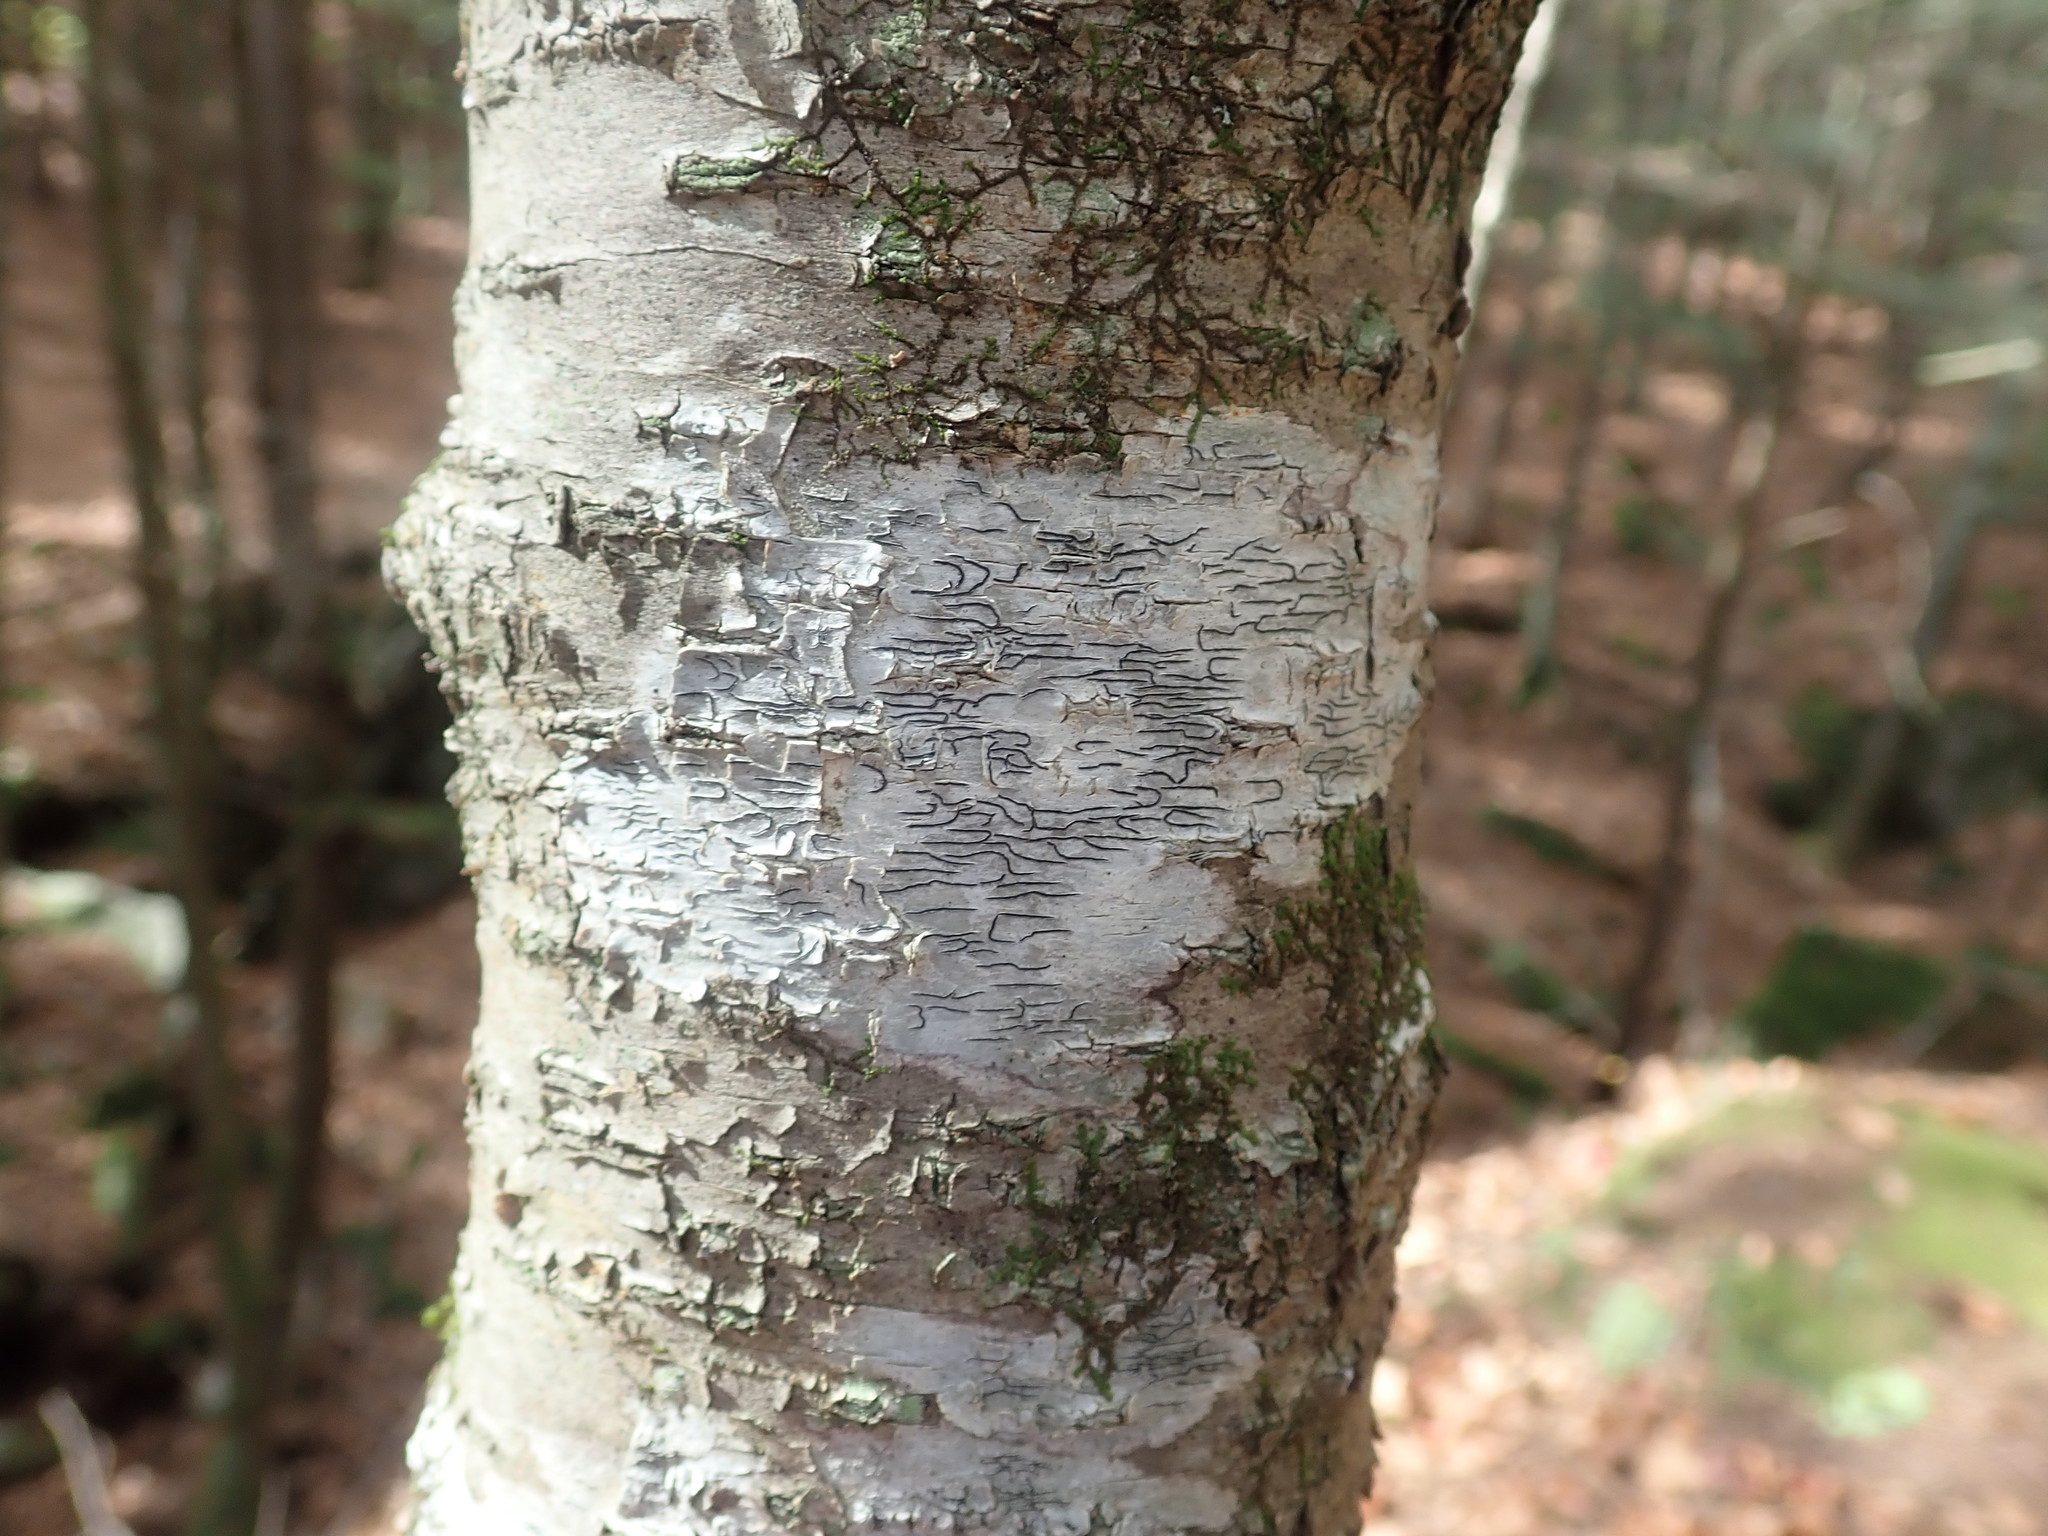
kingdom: Fungi
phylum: Ascomycota
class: Lecanoromycetes
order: Ostropales
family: Graphidaceae
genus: Graphis
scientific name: Graphis scripta
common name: Script lichen
